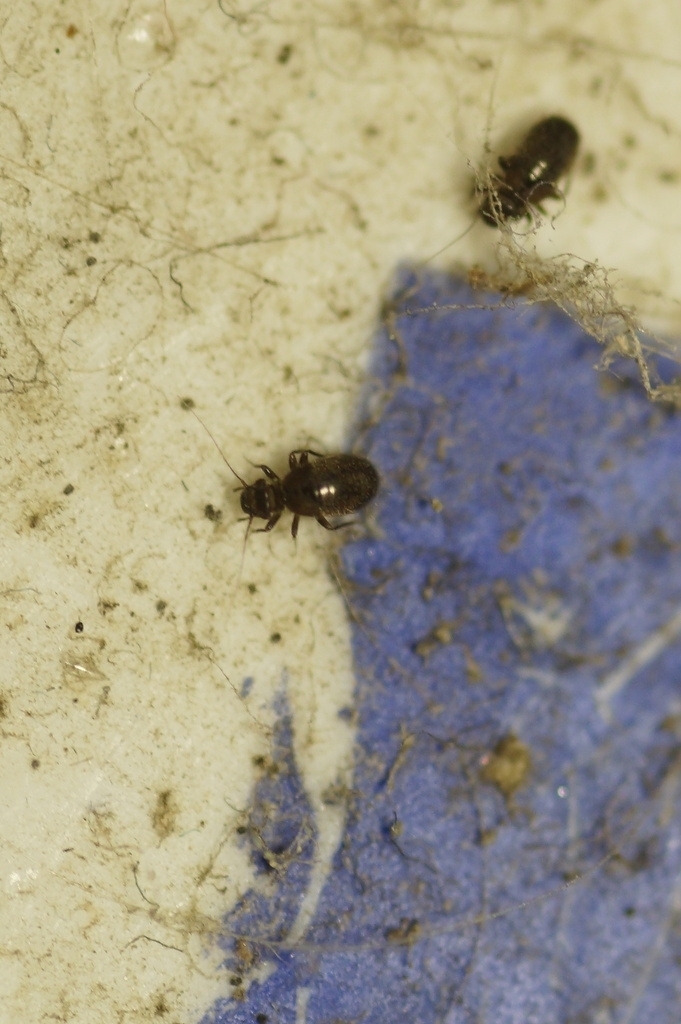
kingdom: Animalia
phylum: Arthropoda
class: Insecta
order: Psocodea
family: Trogiidae
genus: Lepinotus
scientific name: Lepinotus
